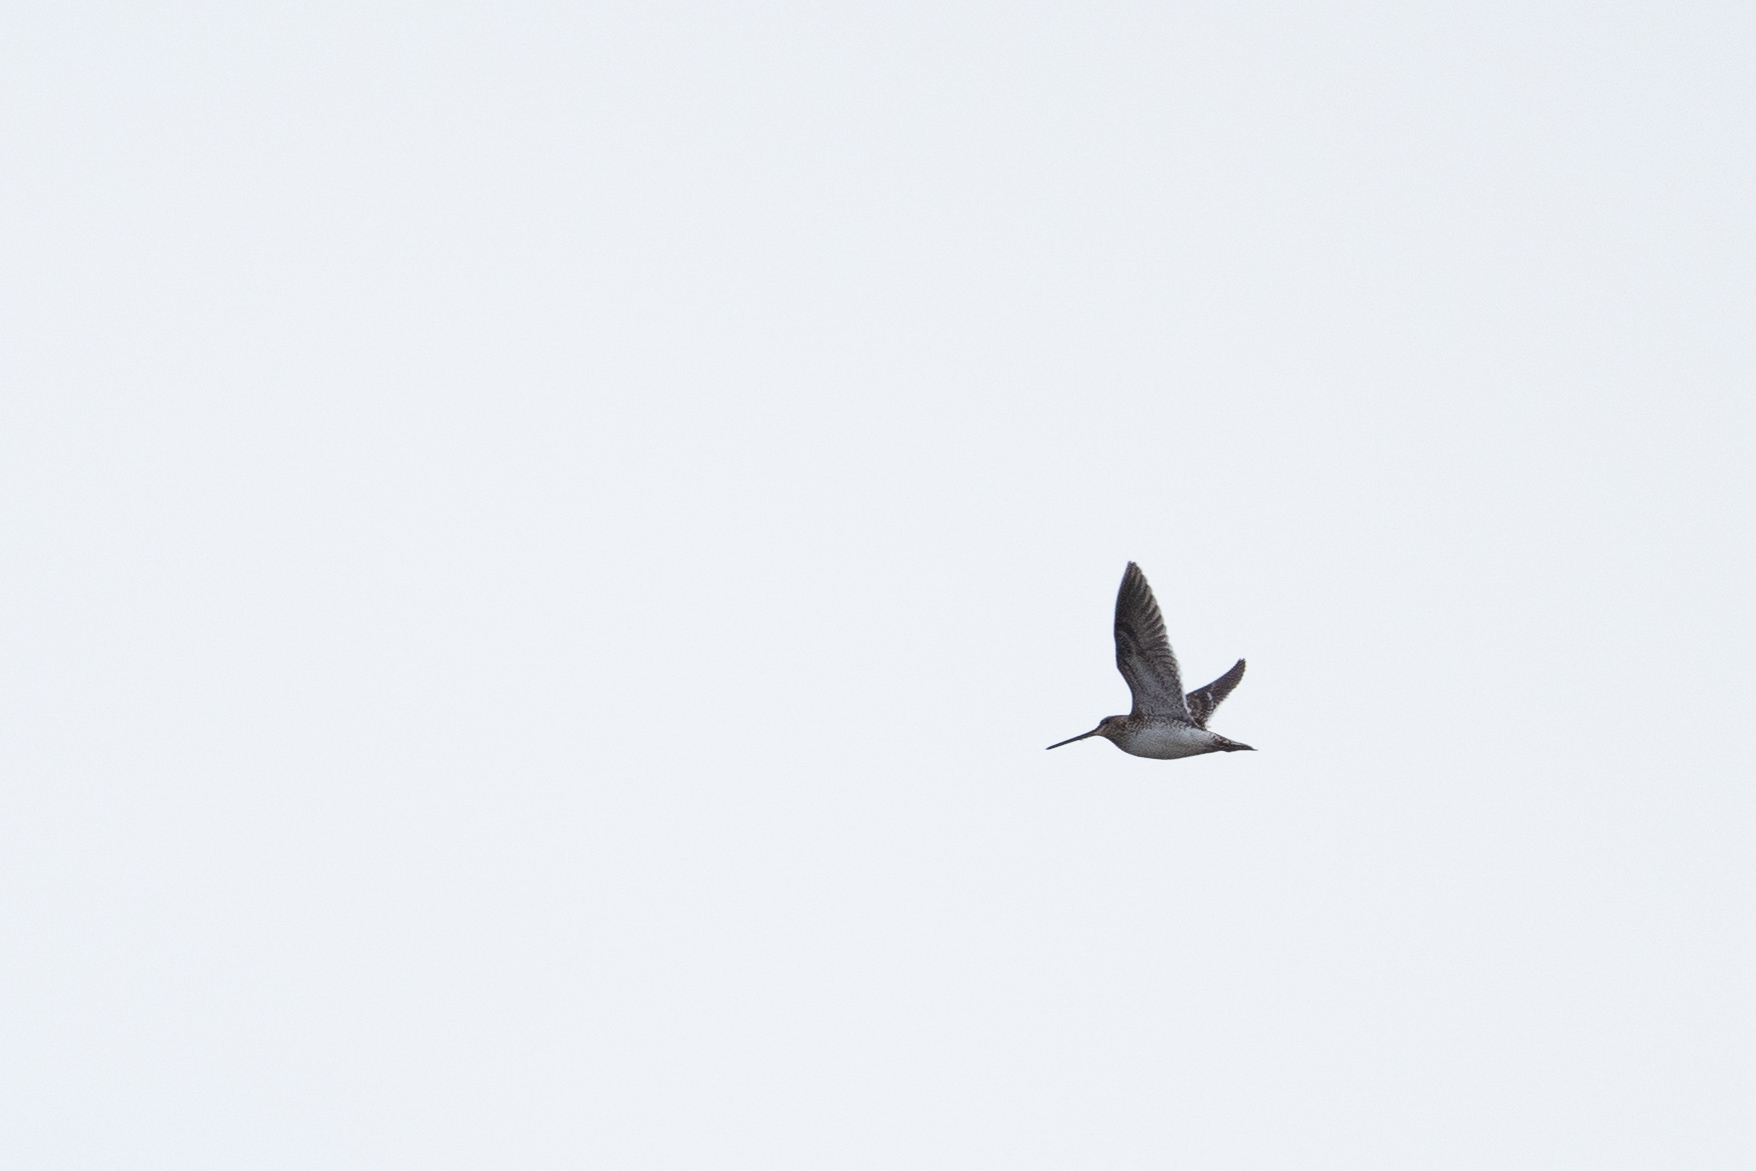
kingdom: Animalia
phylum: Chordata
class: Aves
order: Charadriiformes
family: Scolopacidae
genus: Gallinago
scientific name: Gallinago gallinago
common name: Common snipe
